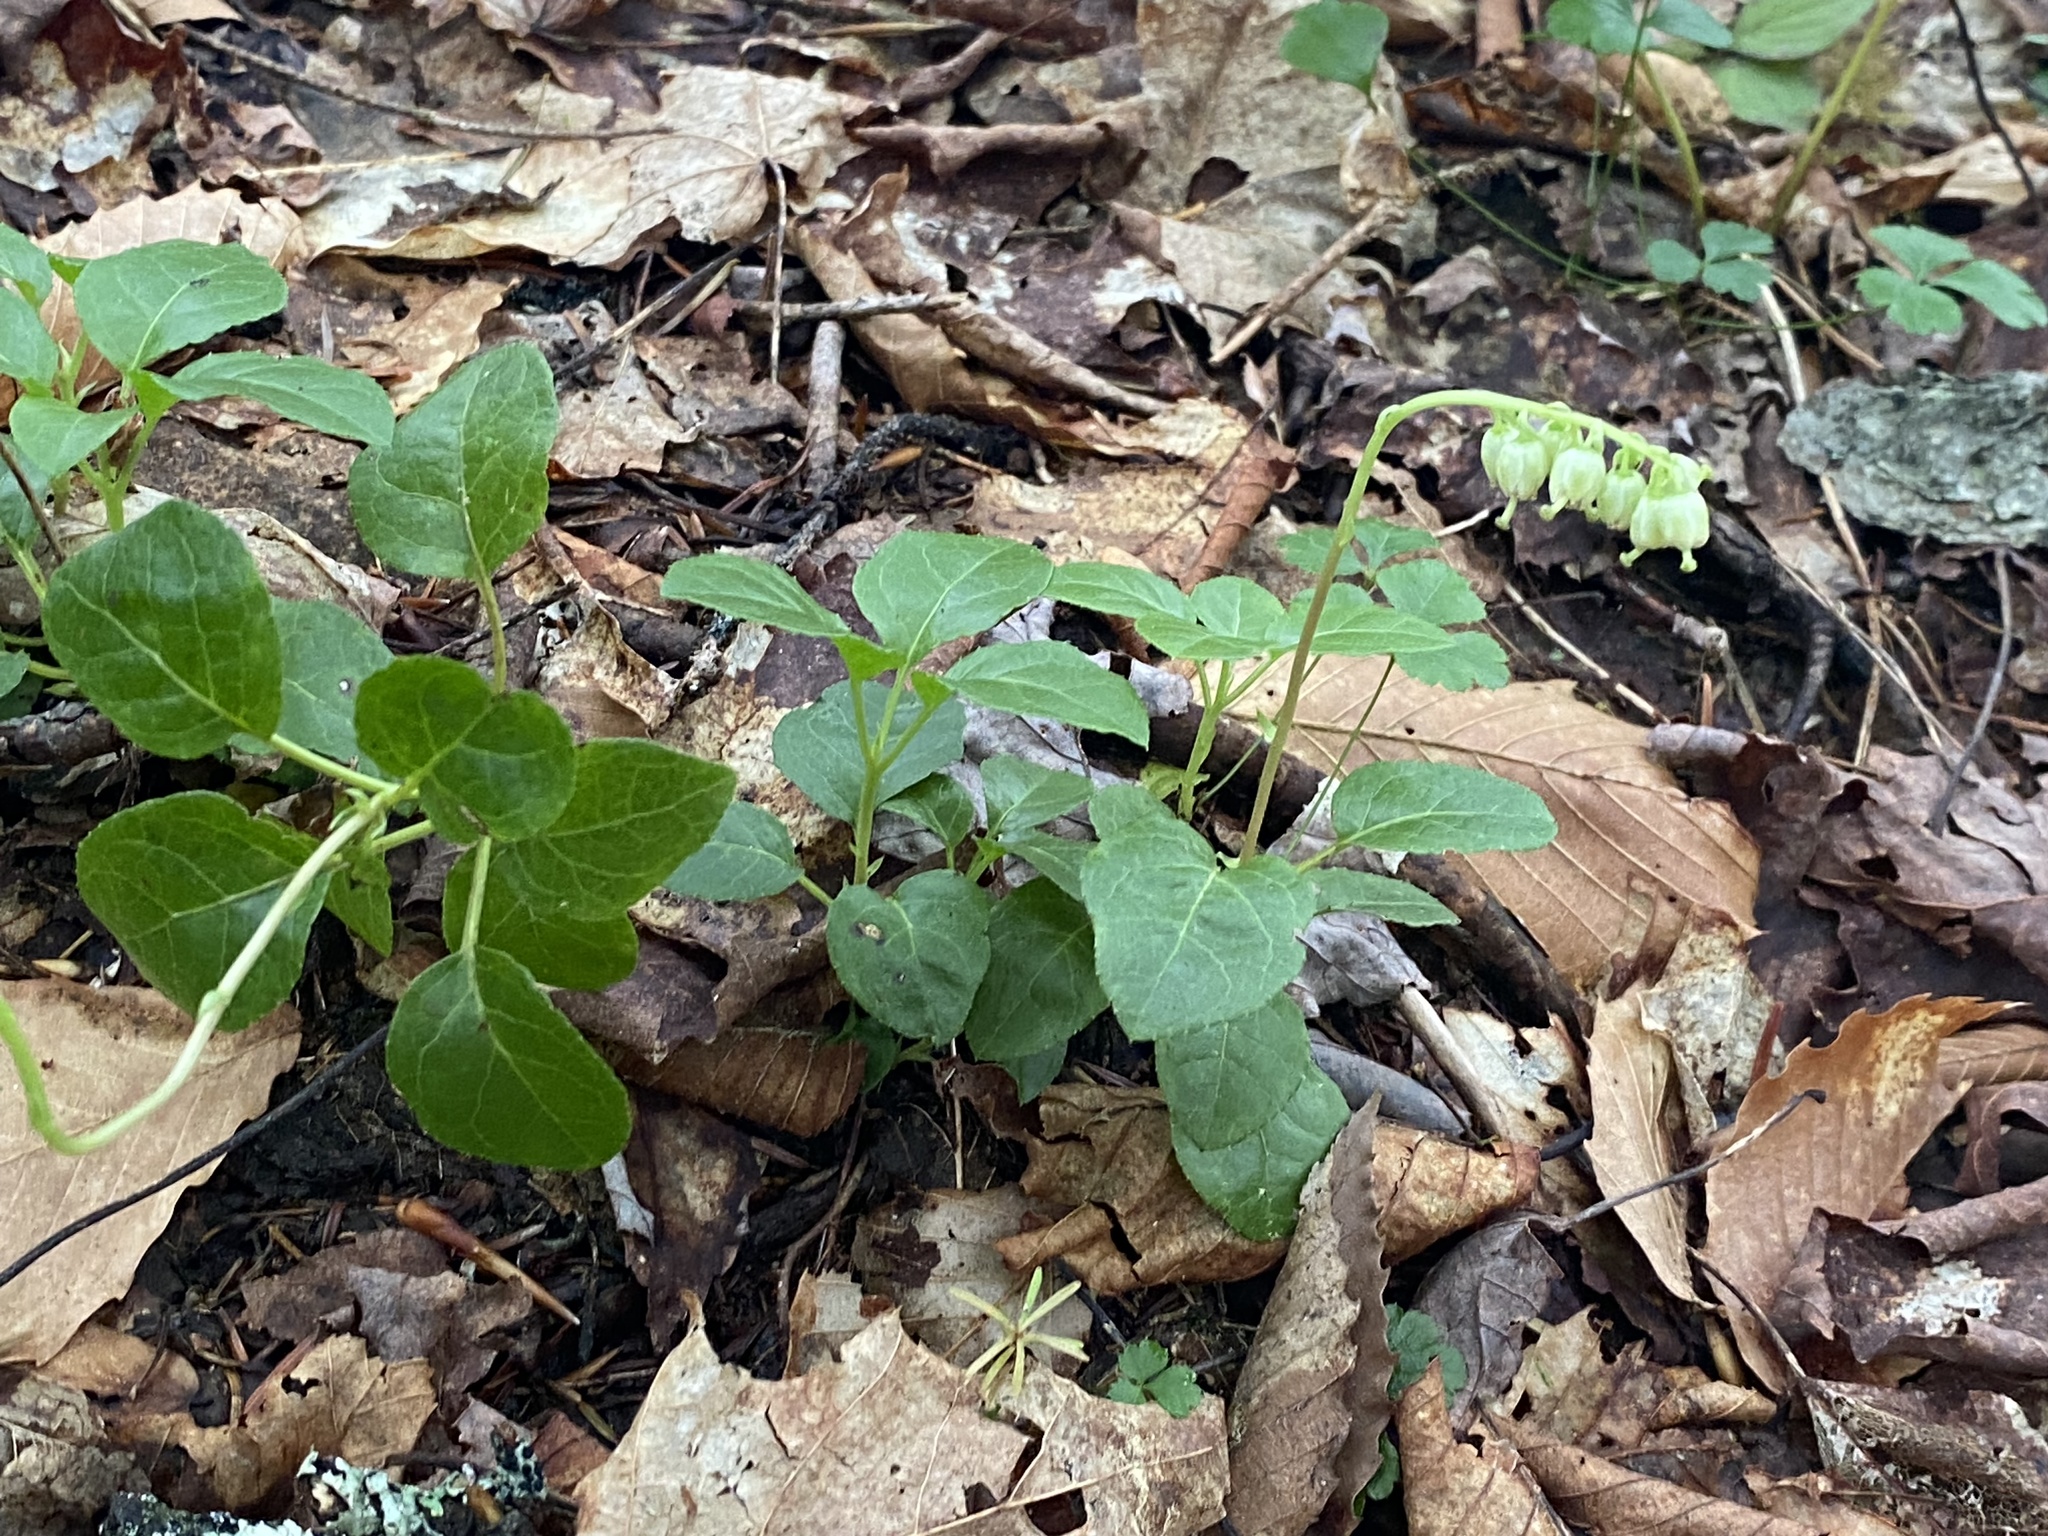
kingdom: Plantae
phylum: Tracheophyta
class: Magnoliopsida
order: Ericales
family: Ericaceae
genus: Orthilia
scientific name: Orthilia secunda
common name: One-sided orthilia
